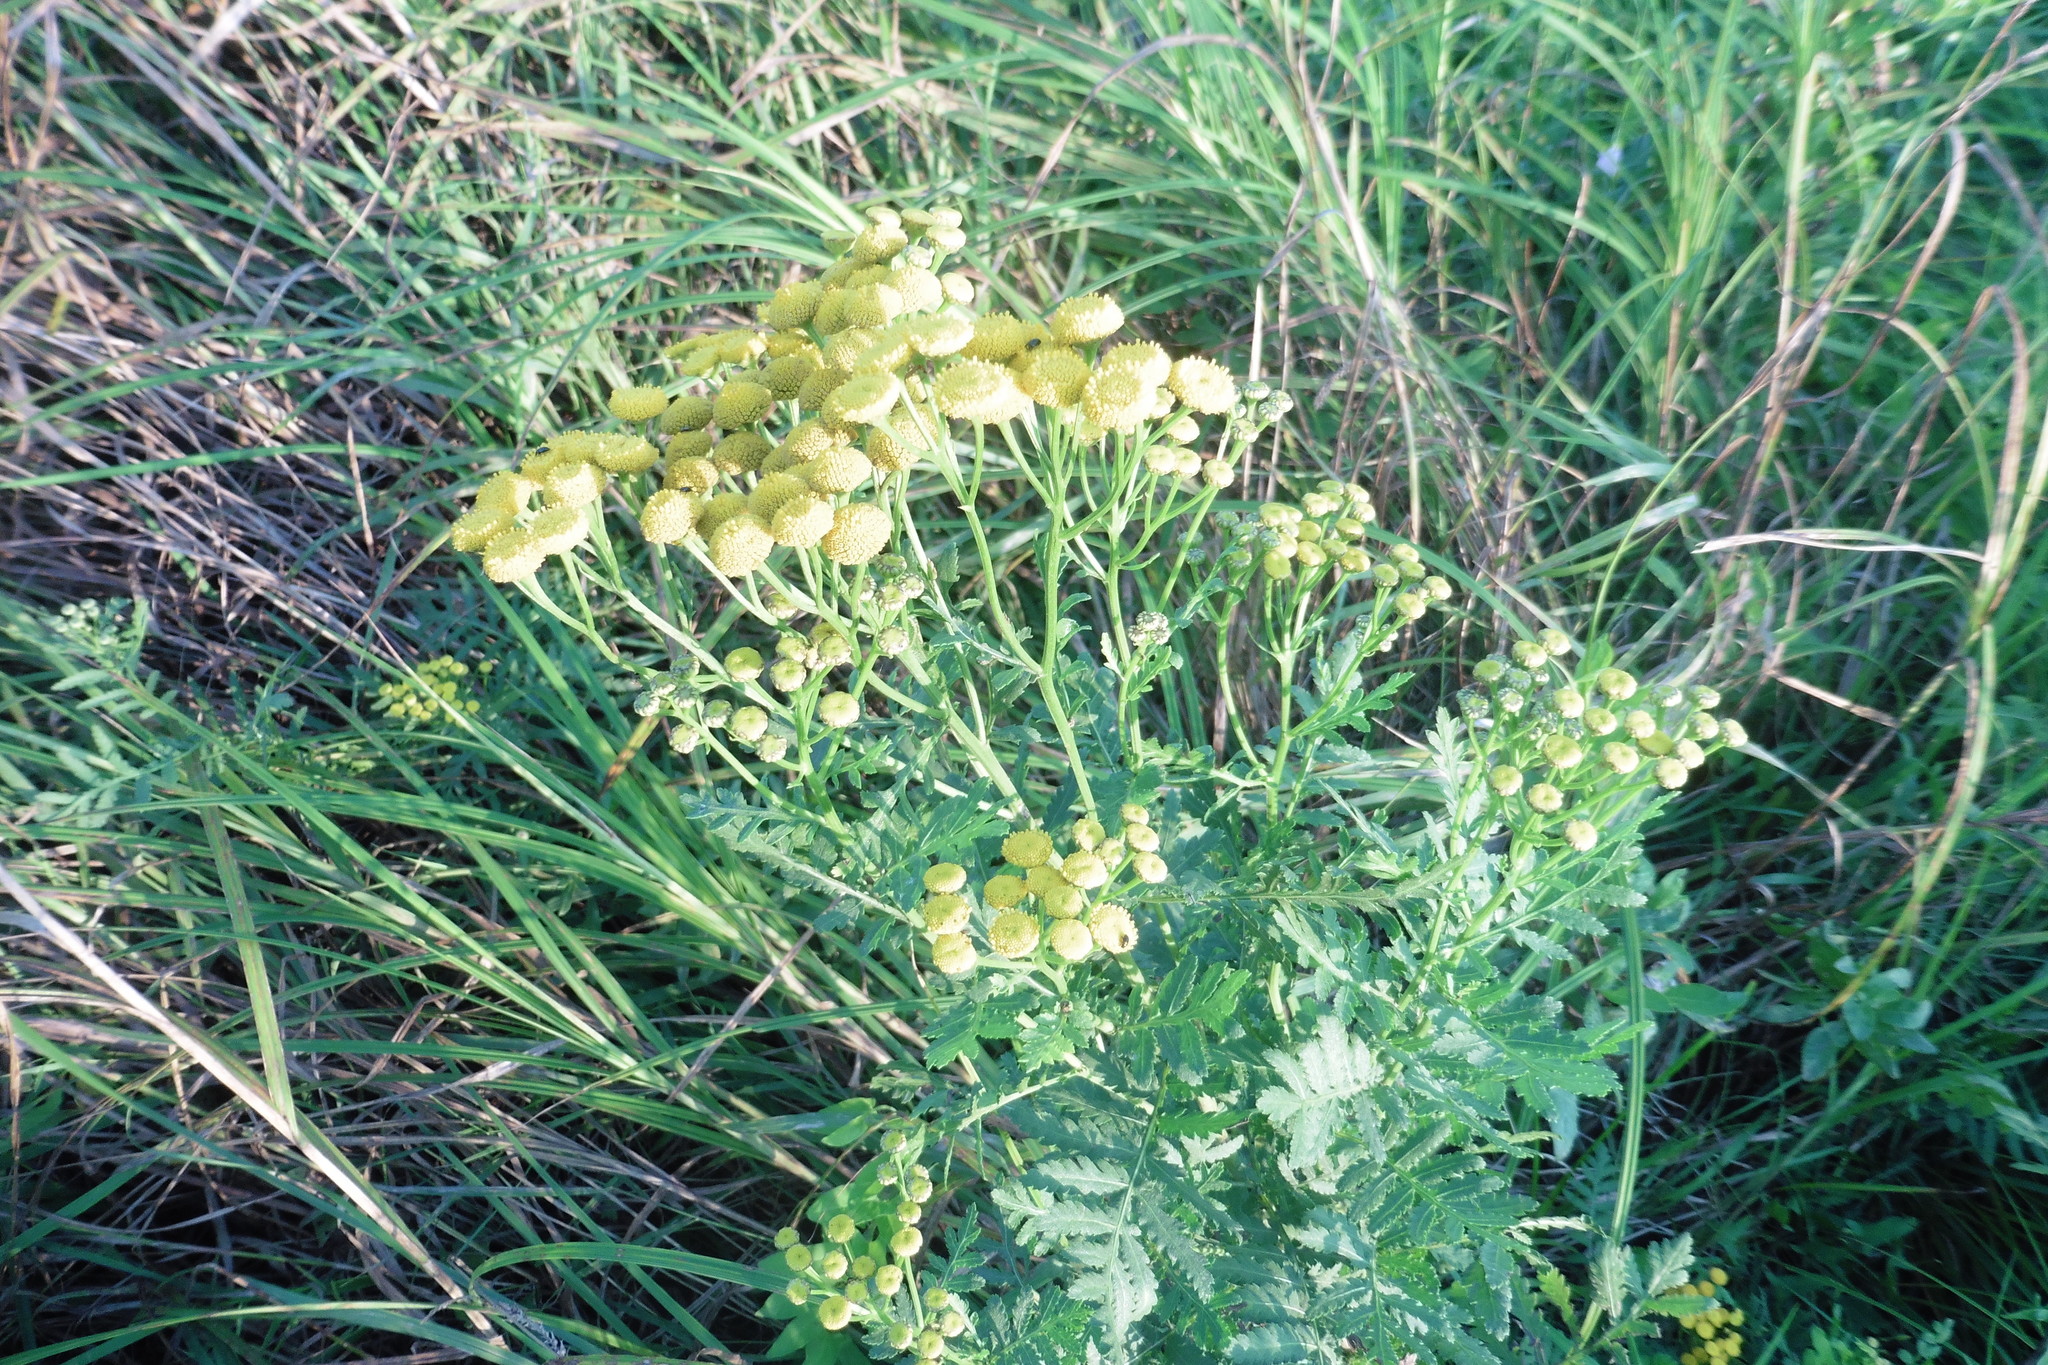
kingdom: Plantae
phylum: Tracheophyta
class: Magnoliopsida
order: Asterales
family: Asteraceae
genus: Tanacetum
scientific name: Tanacetum vulgare
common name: Common tansy
